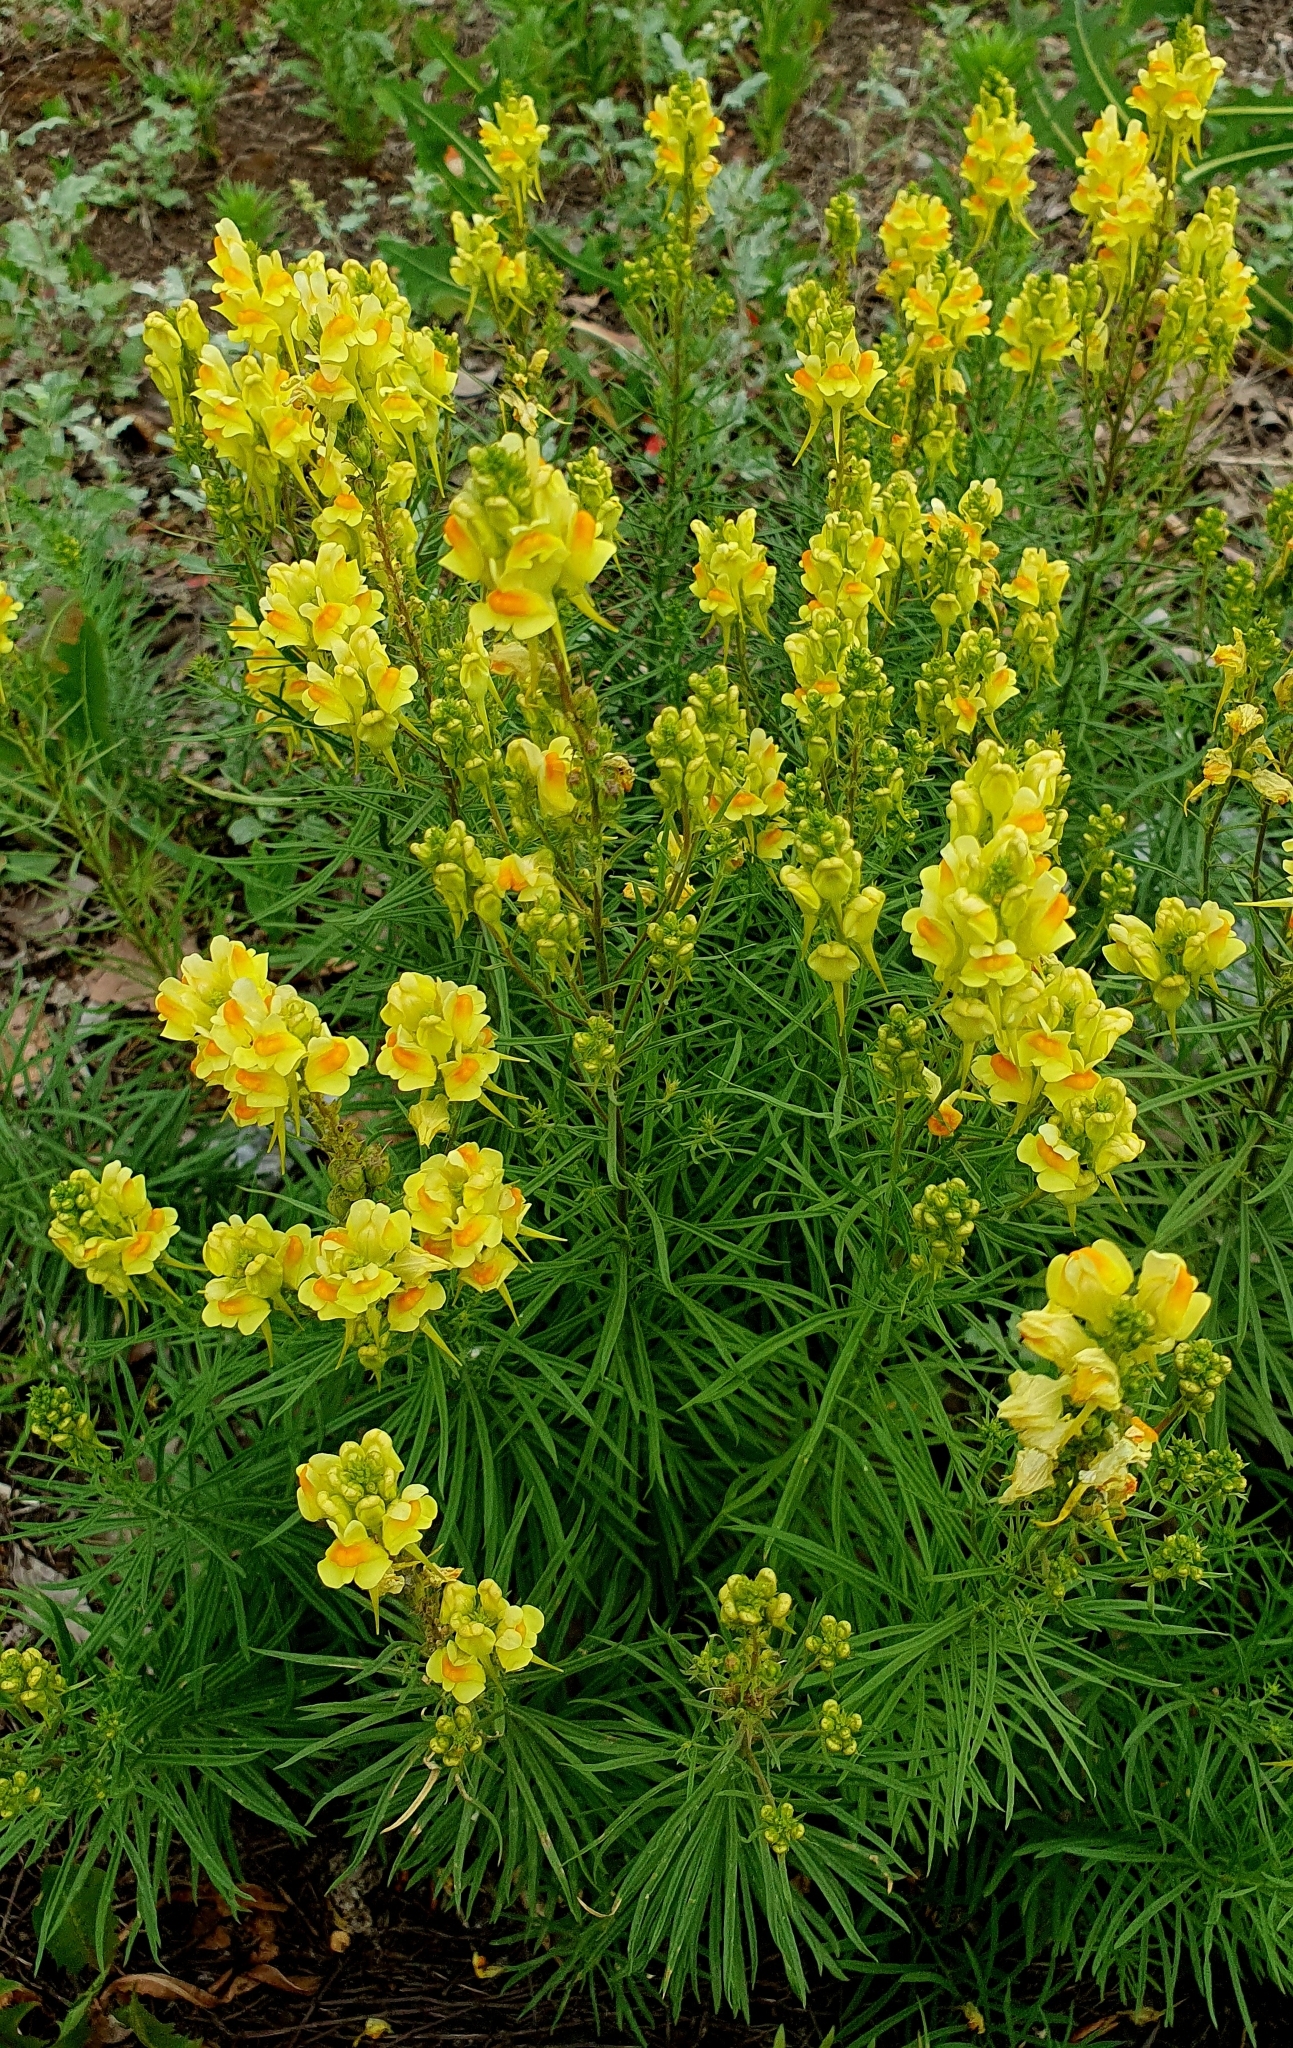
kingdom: Plantae
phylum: Tracheophyta
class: Magnoliopsida
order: Lamiales
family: Plantaginaceae
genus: Linaria
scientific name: Linaria vulgaris
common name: Butter and eggs
